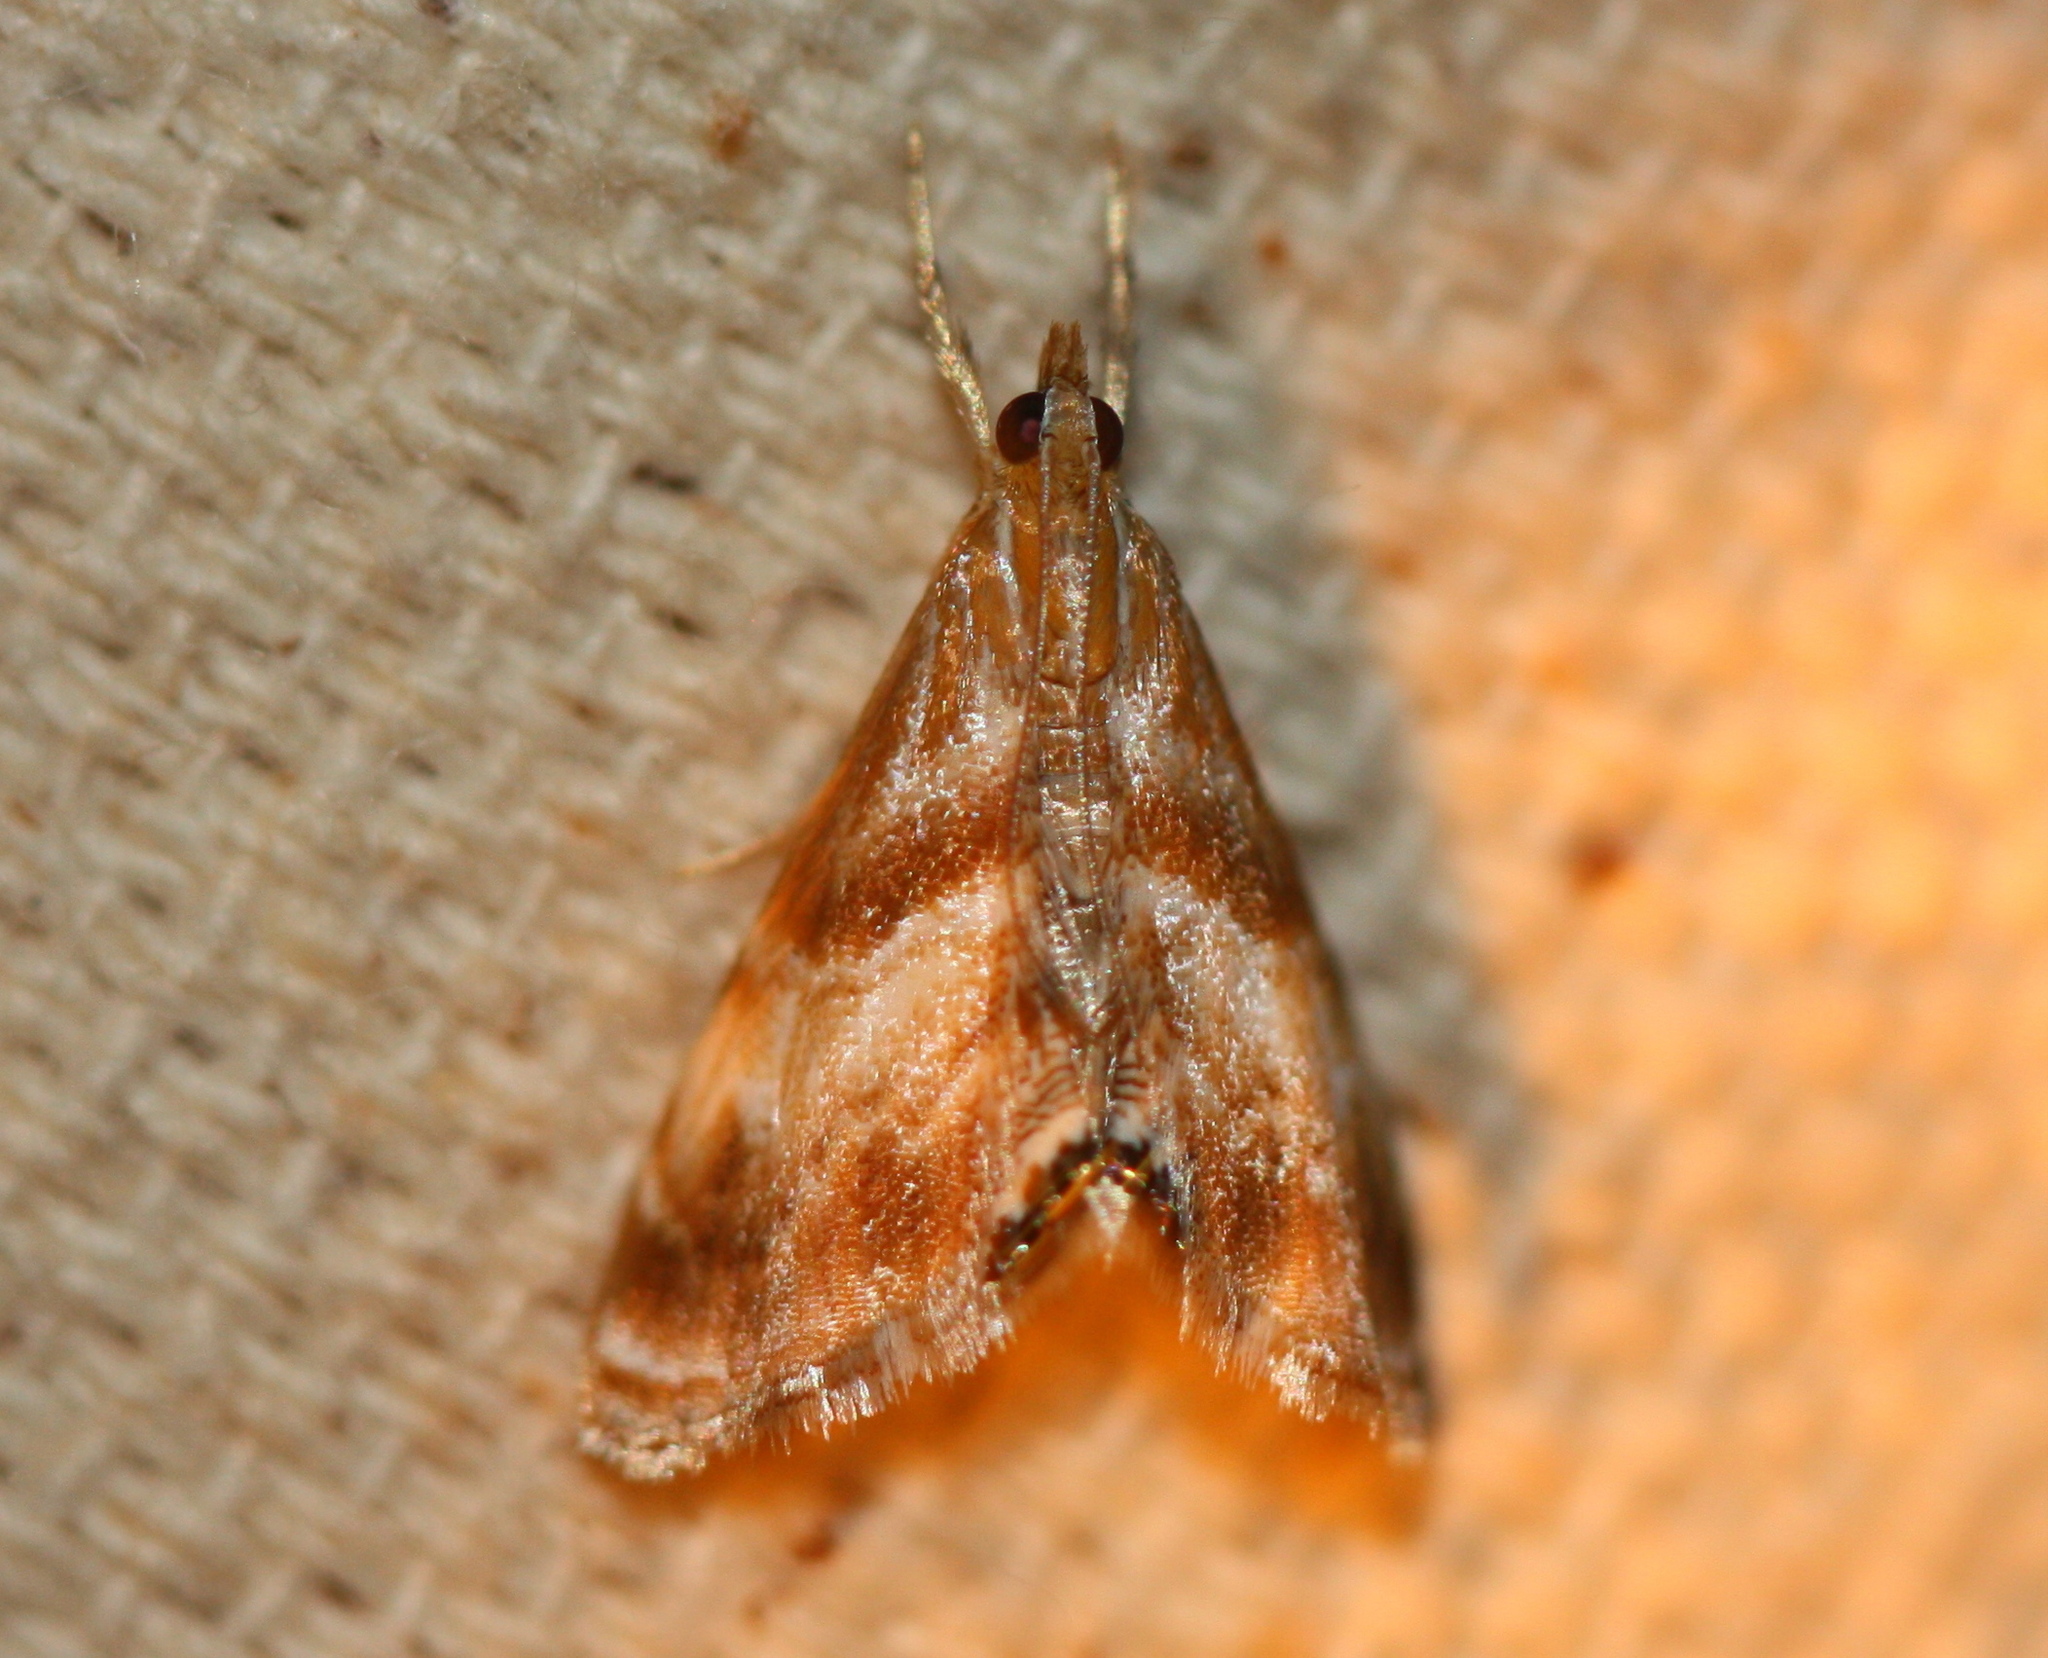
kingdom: Animalia
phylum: Arthropoda
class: Insecta
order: Lepidoptera
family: Crambidae
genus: Dicymolomia
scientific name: Dicymolomia metalliferalis
